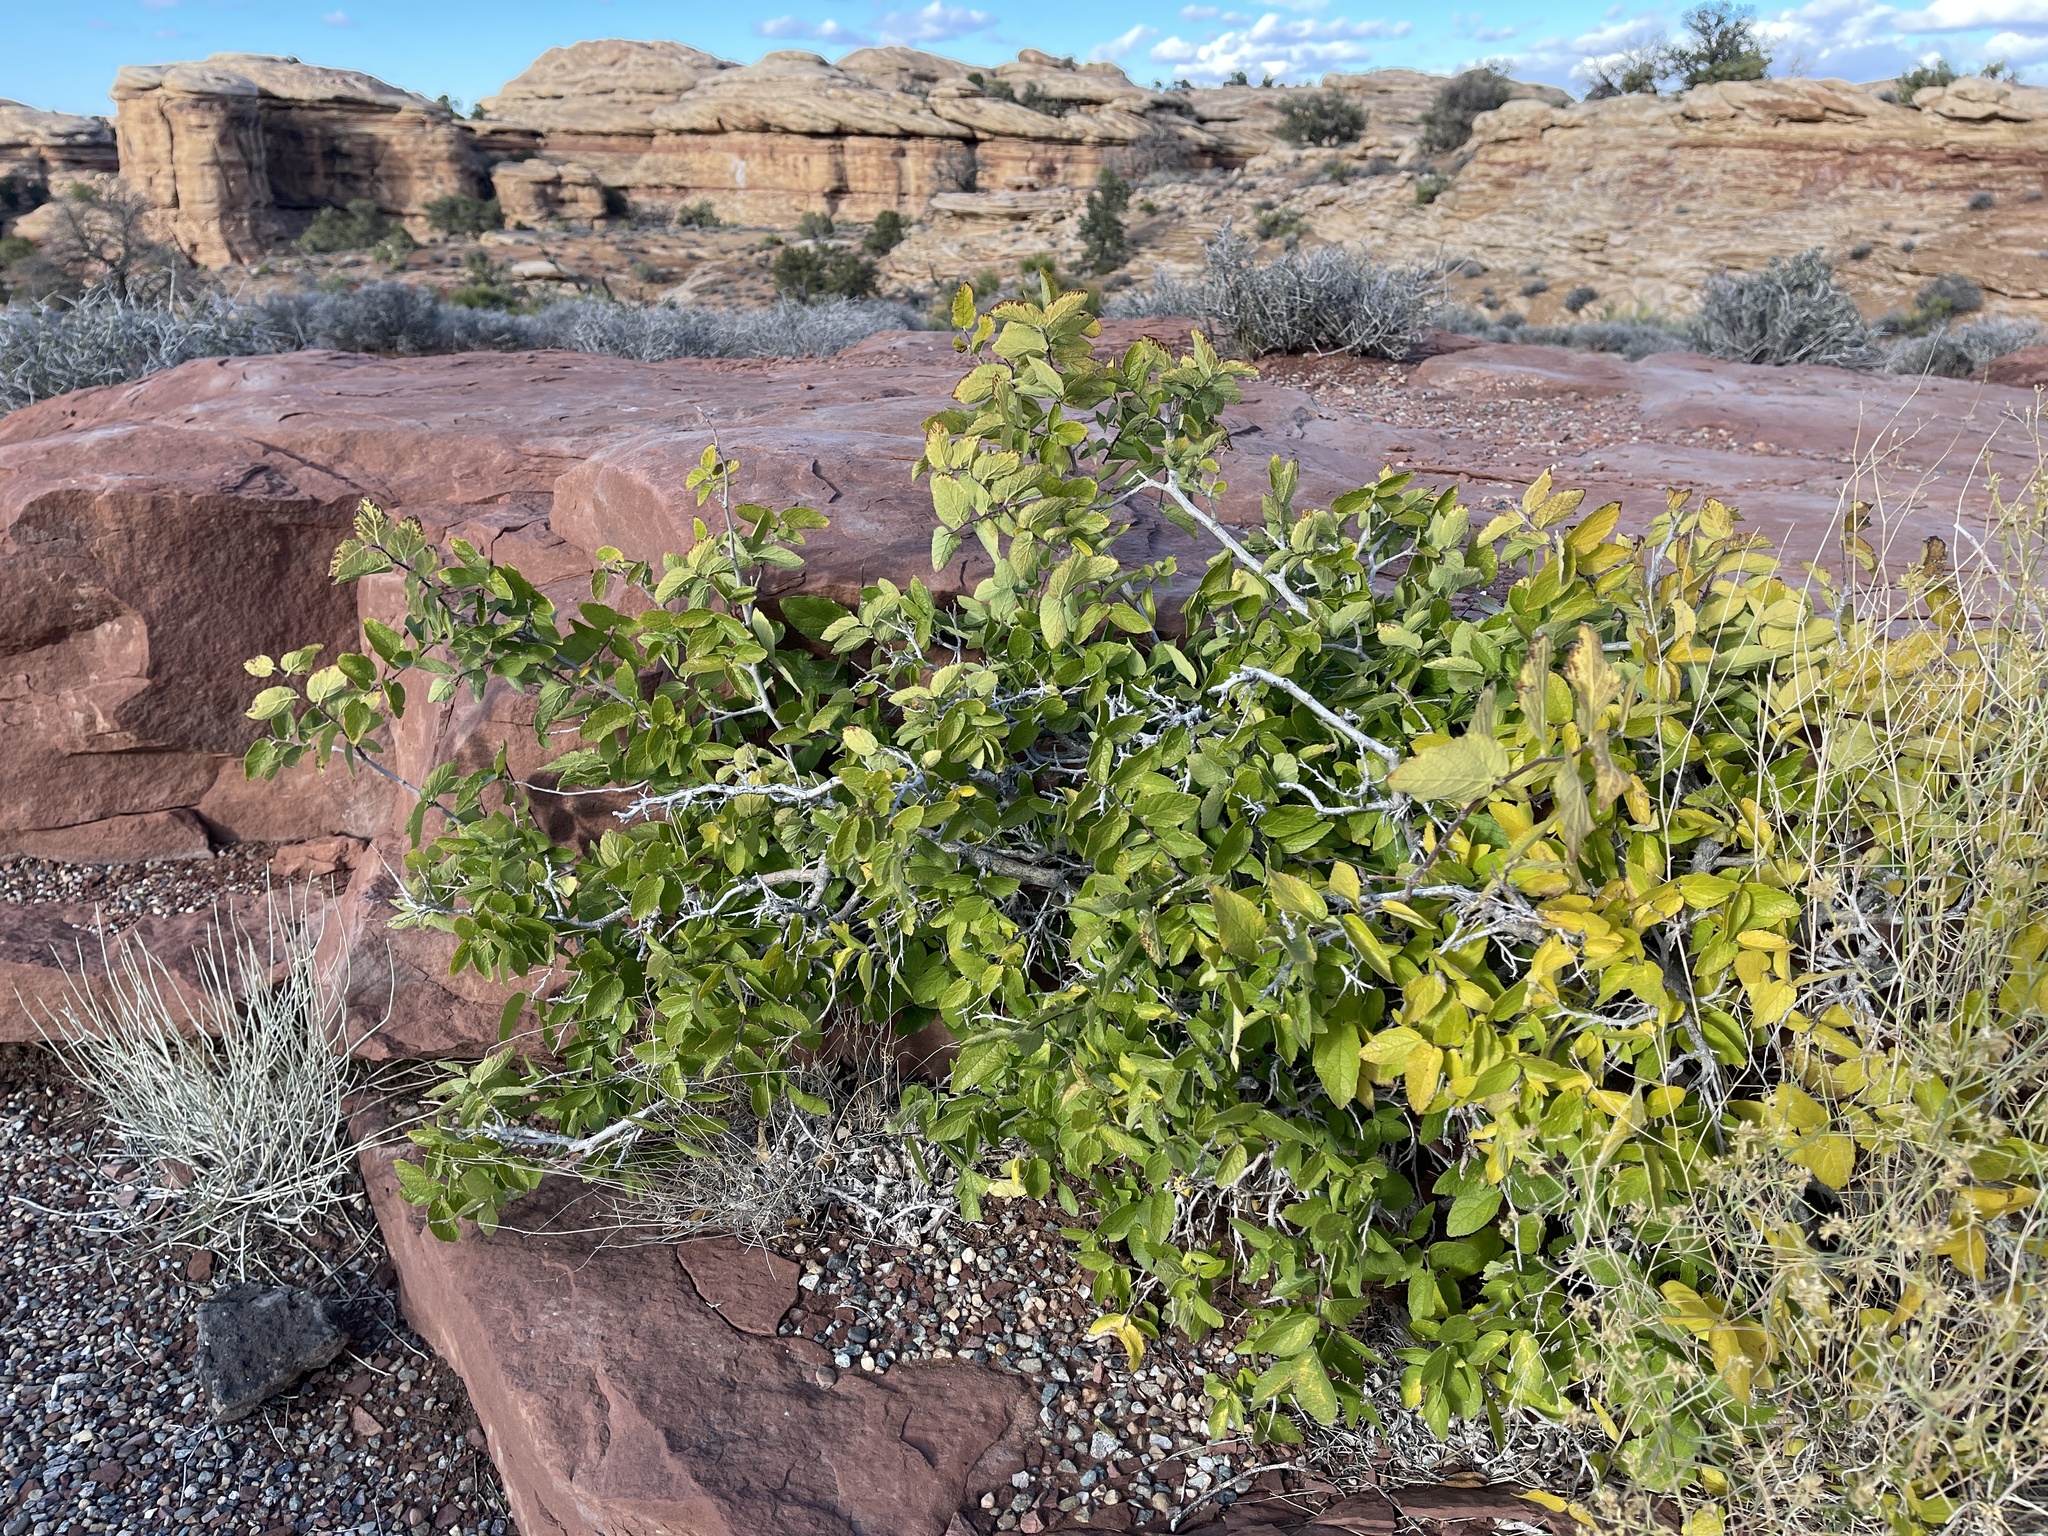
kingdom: Plantae
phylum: Tracheophyta
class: Magnoliopsida
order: Rosales
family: Cannabaceae
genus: Celtis
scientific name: Celtis reticulata
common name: Netleaf hackberry
